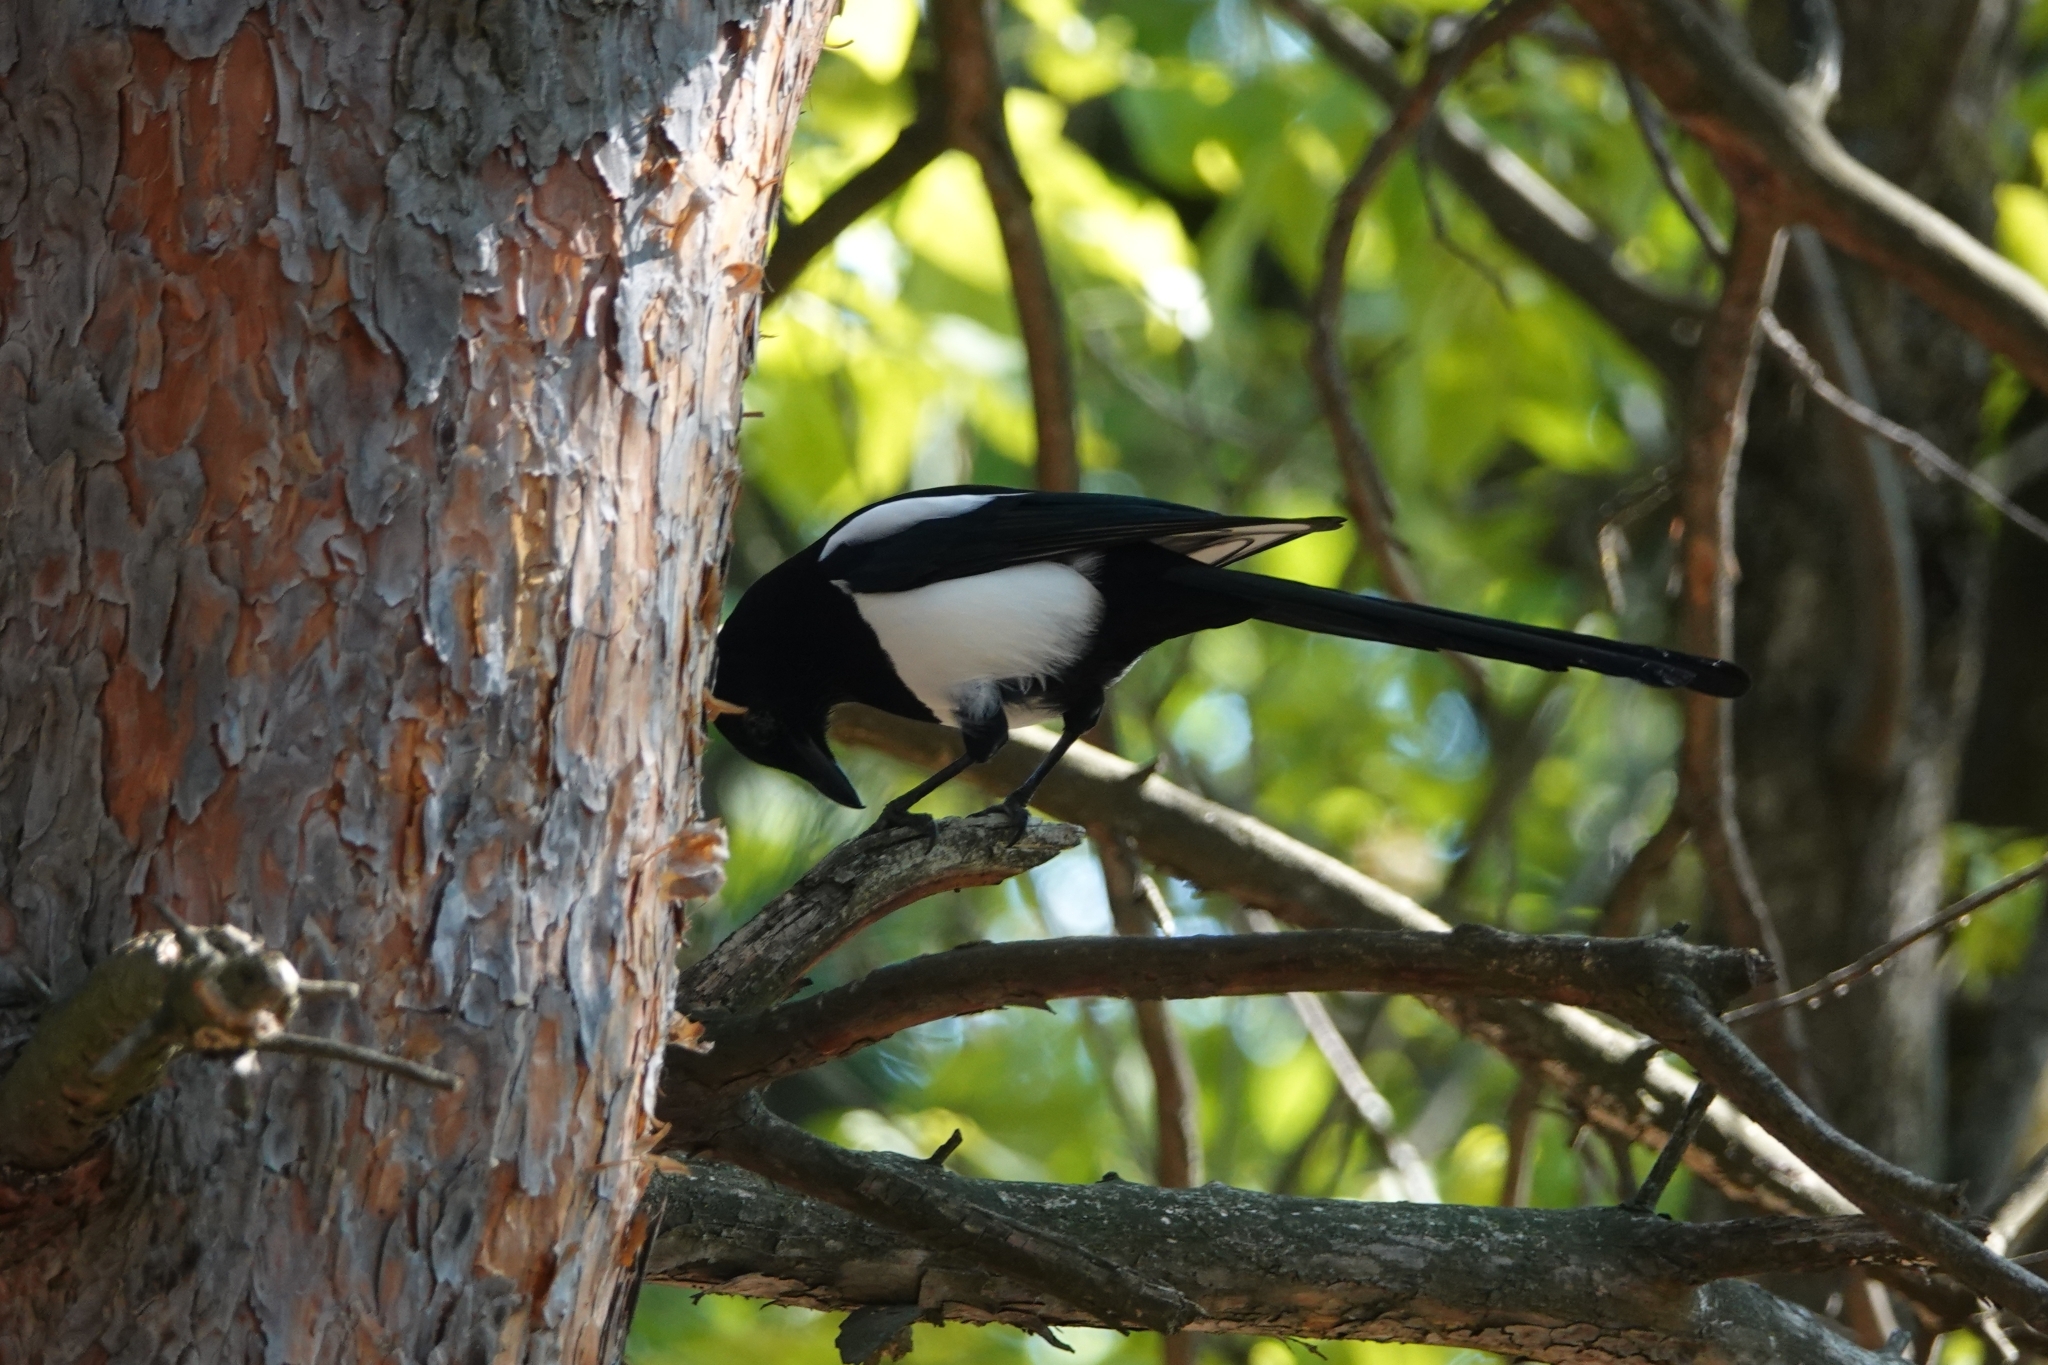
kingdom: Animalia
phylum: Chordata
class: Aves
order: Passeriformes
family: Corvidae
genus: Pica
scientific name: Pica pica
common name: Eurasian magpie
